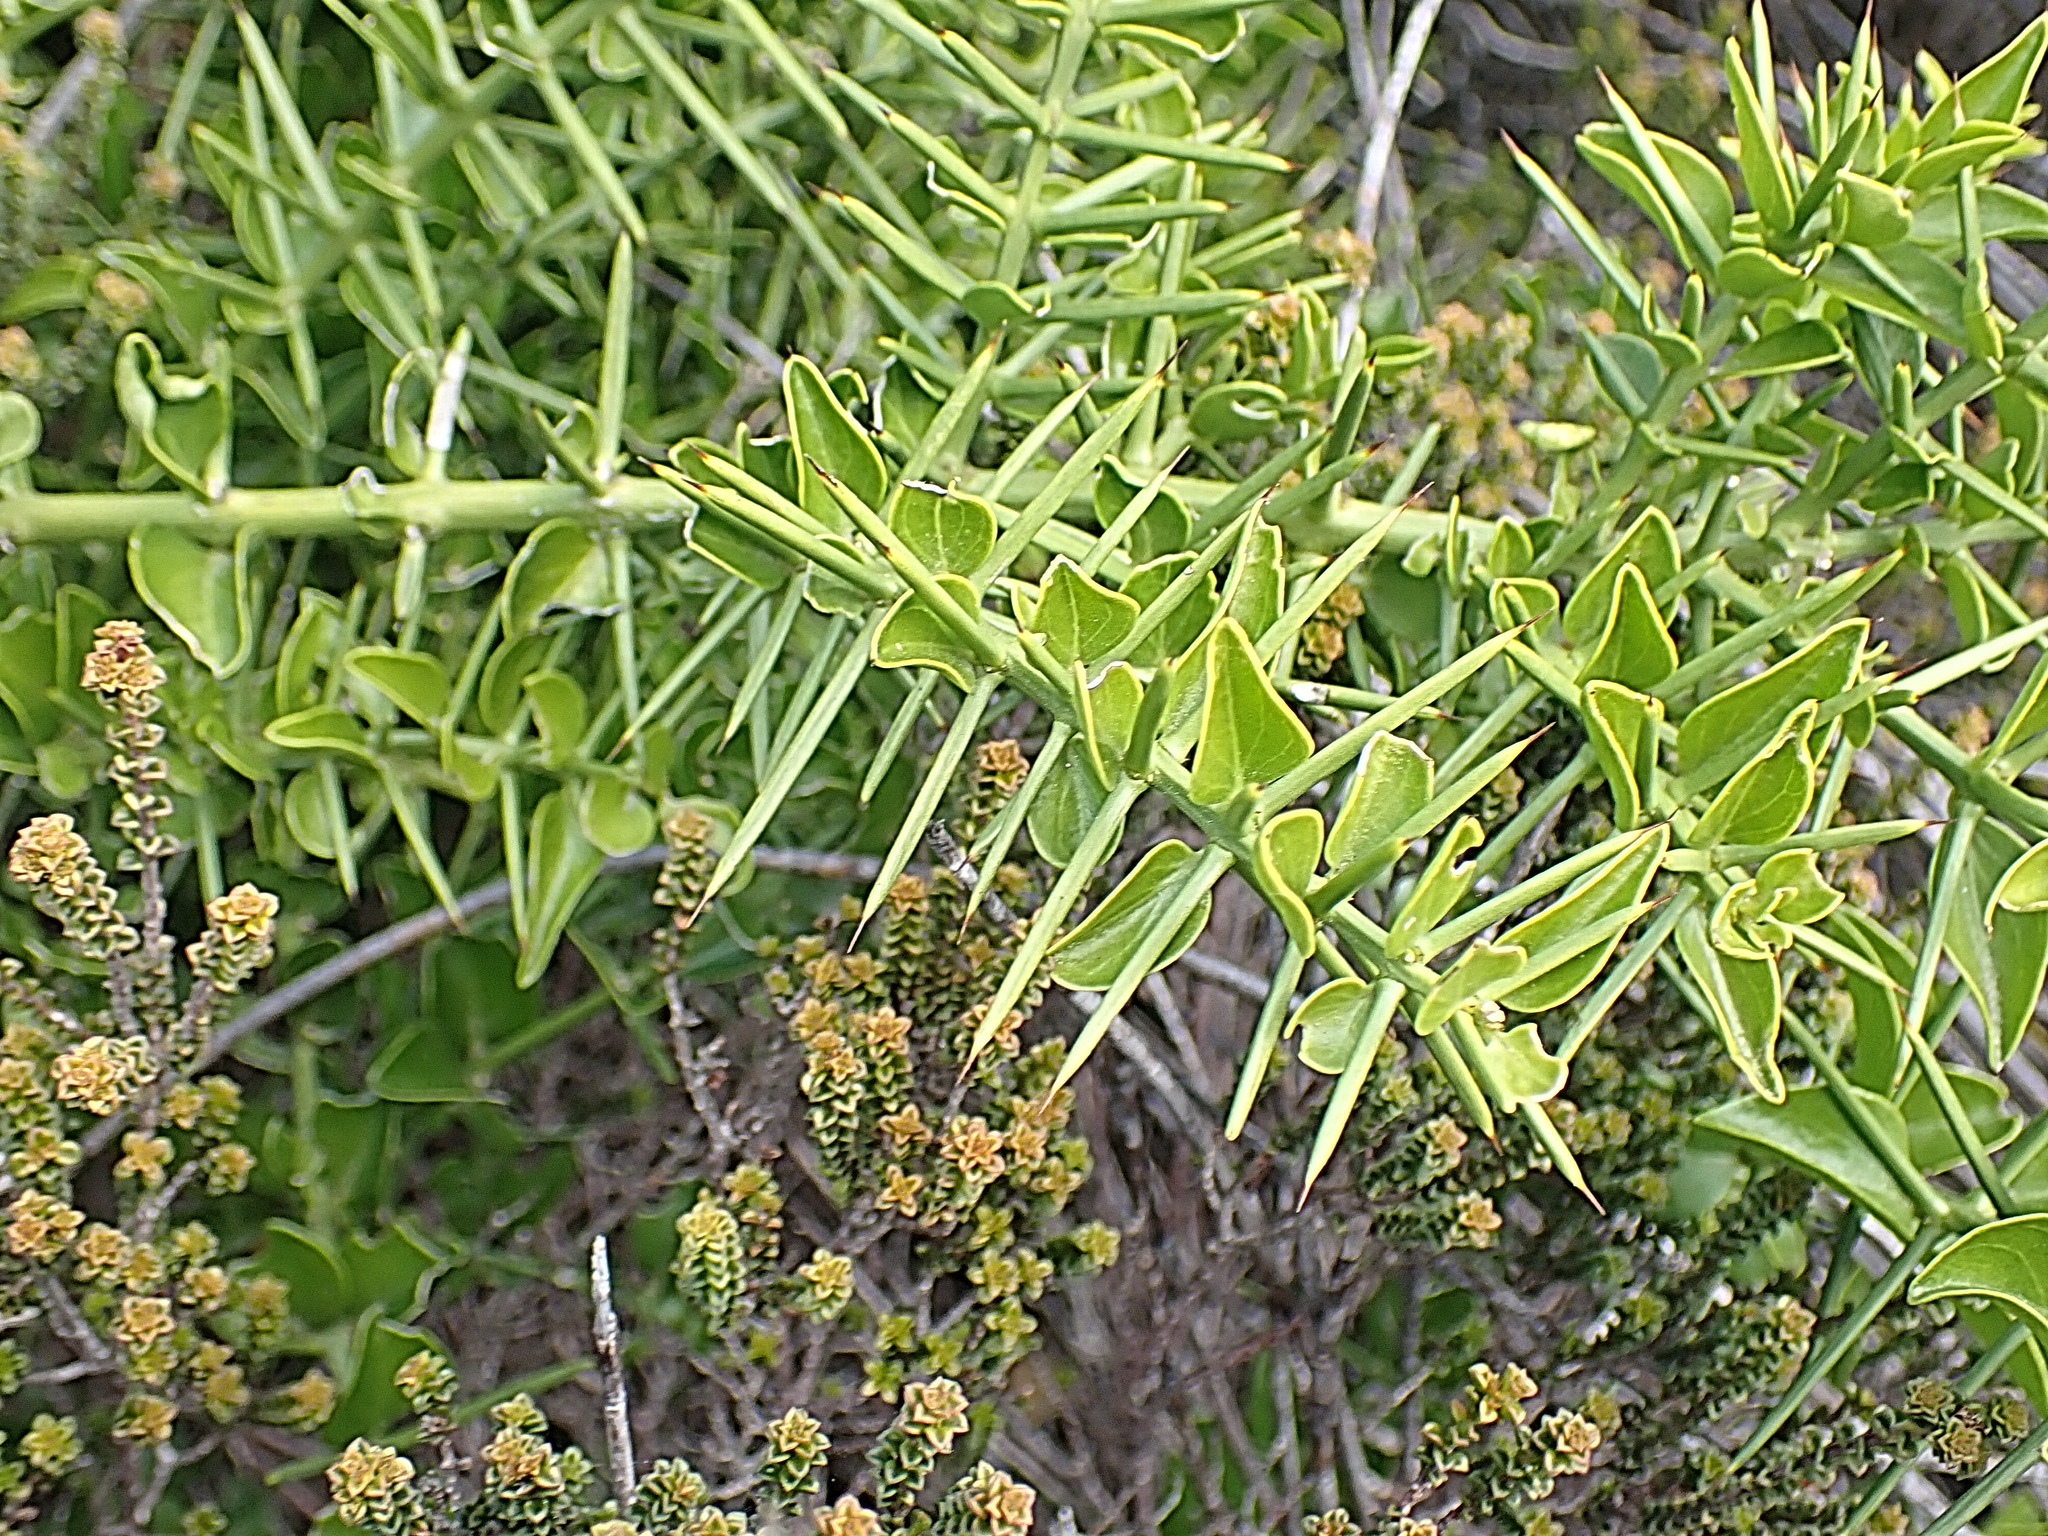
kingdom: Plantae
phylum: Tracheophyta
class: Magnoliopsida
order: Brassicales
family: Salvadoraceae
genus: Azima
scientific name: Azima tetracantha
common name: Needle bush
